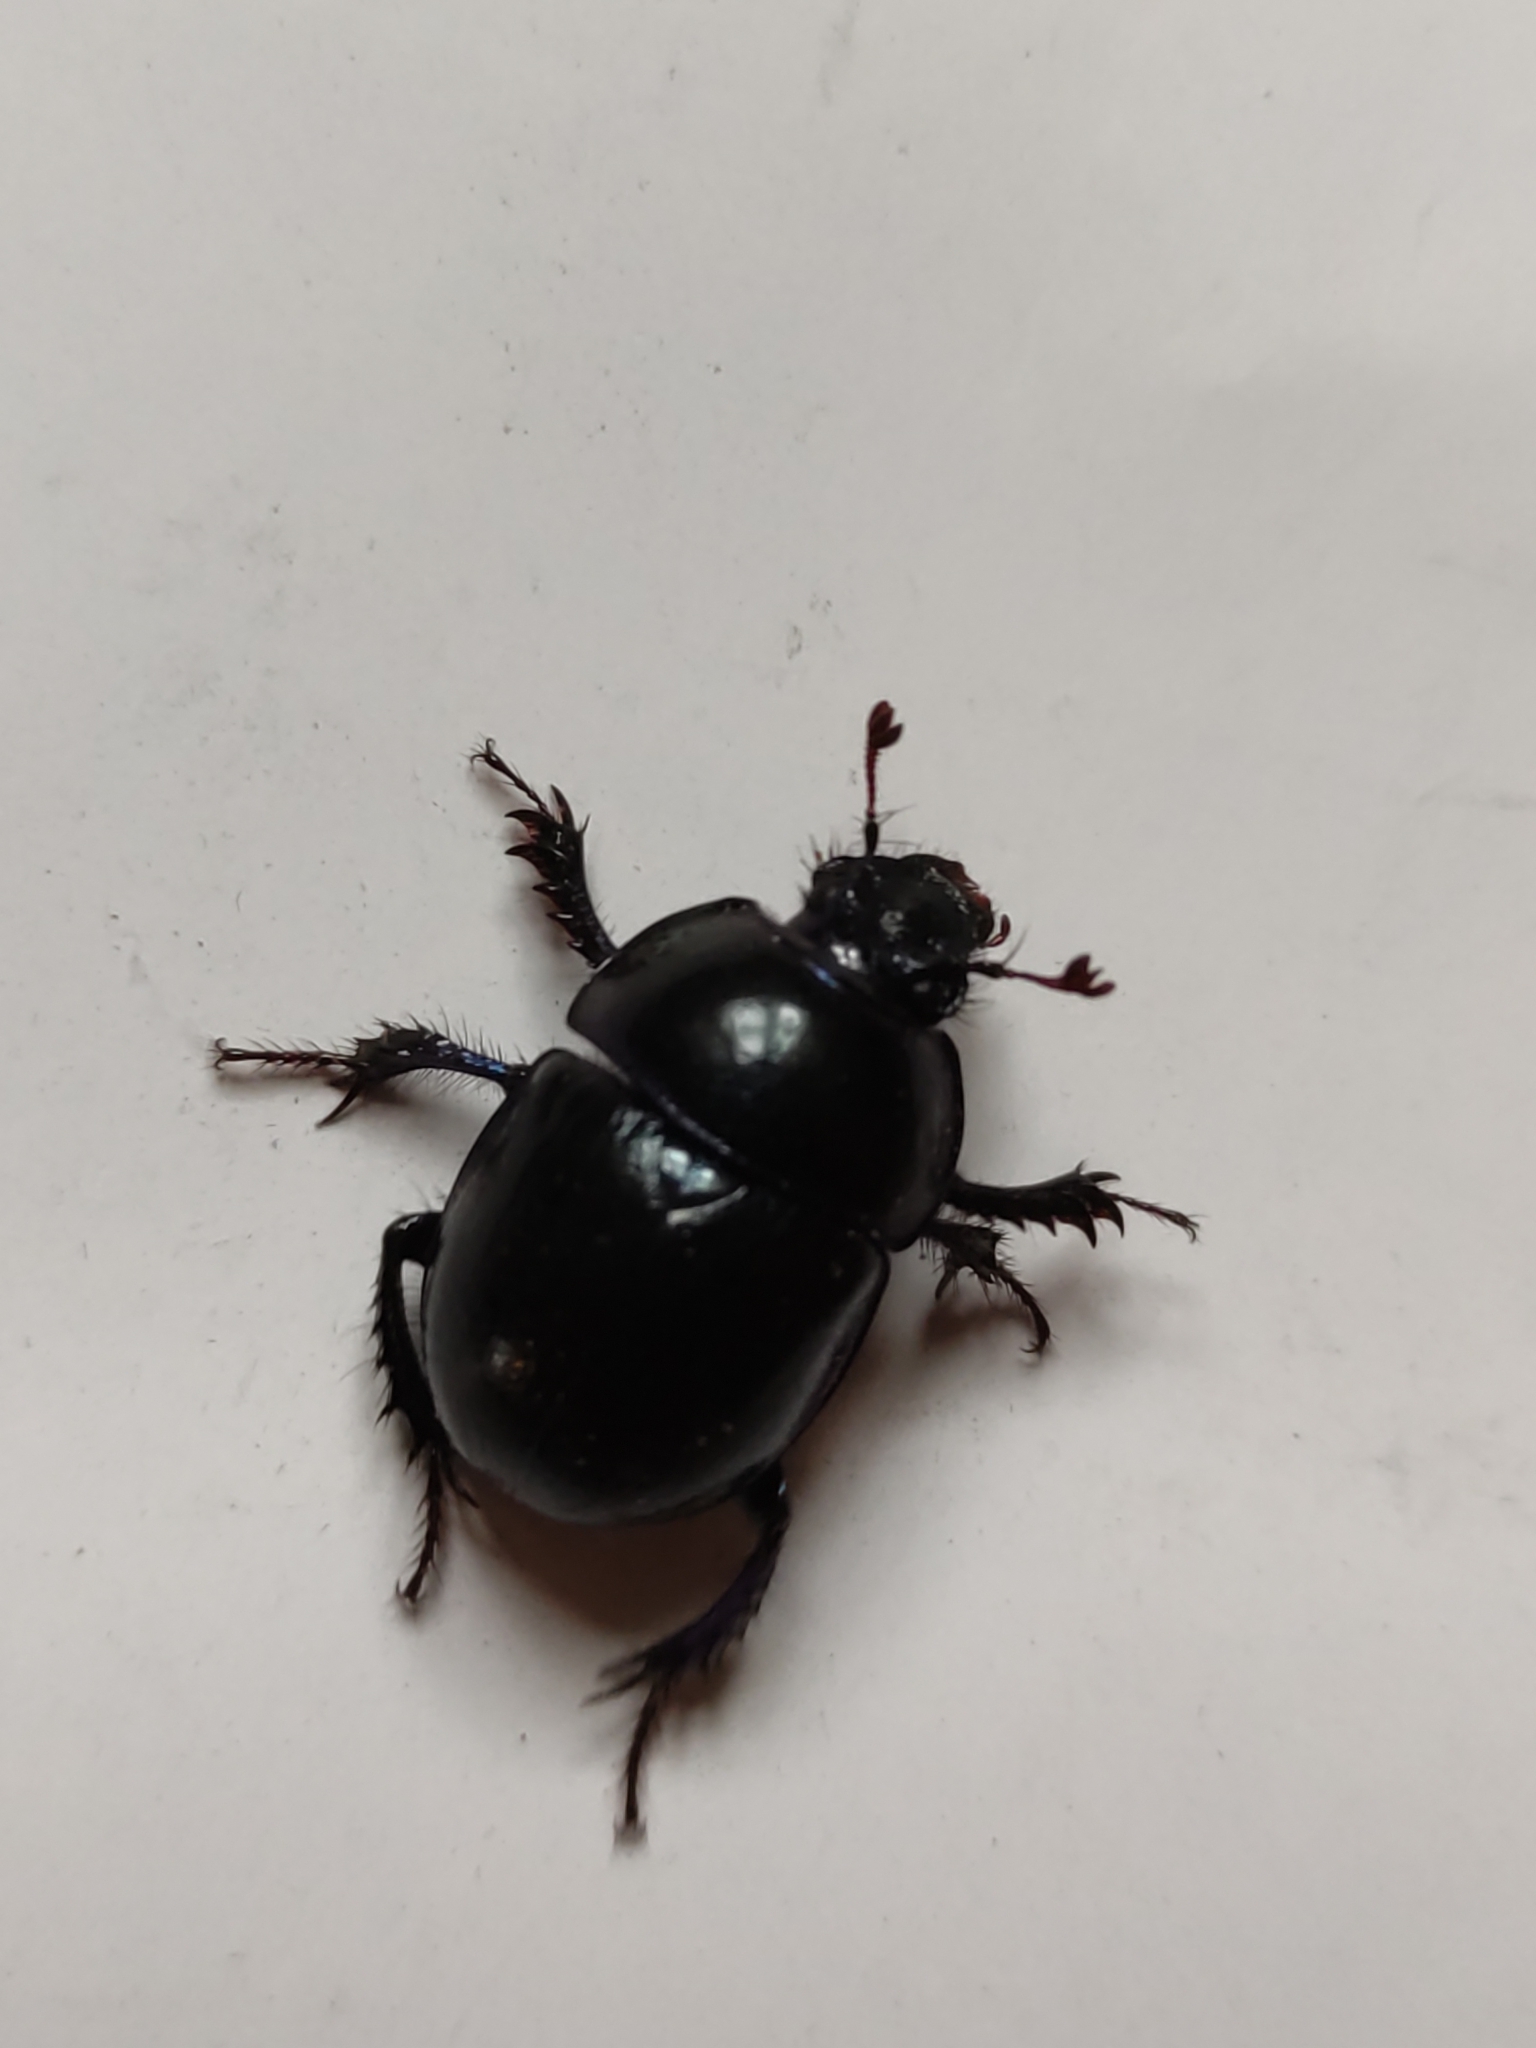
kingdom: Animalia
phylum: Arthropoda
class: Insecta
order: Coleoptera
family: Geotrupidae
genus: Anoplotrupes
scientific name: Anoplotrupes stercorosus
